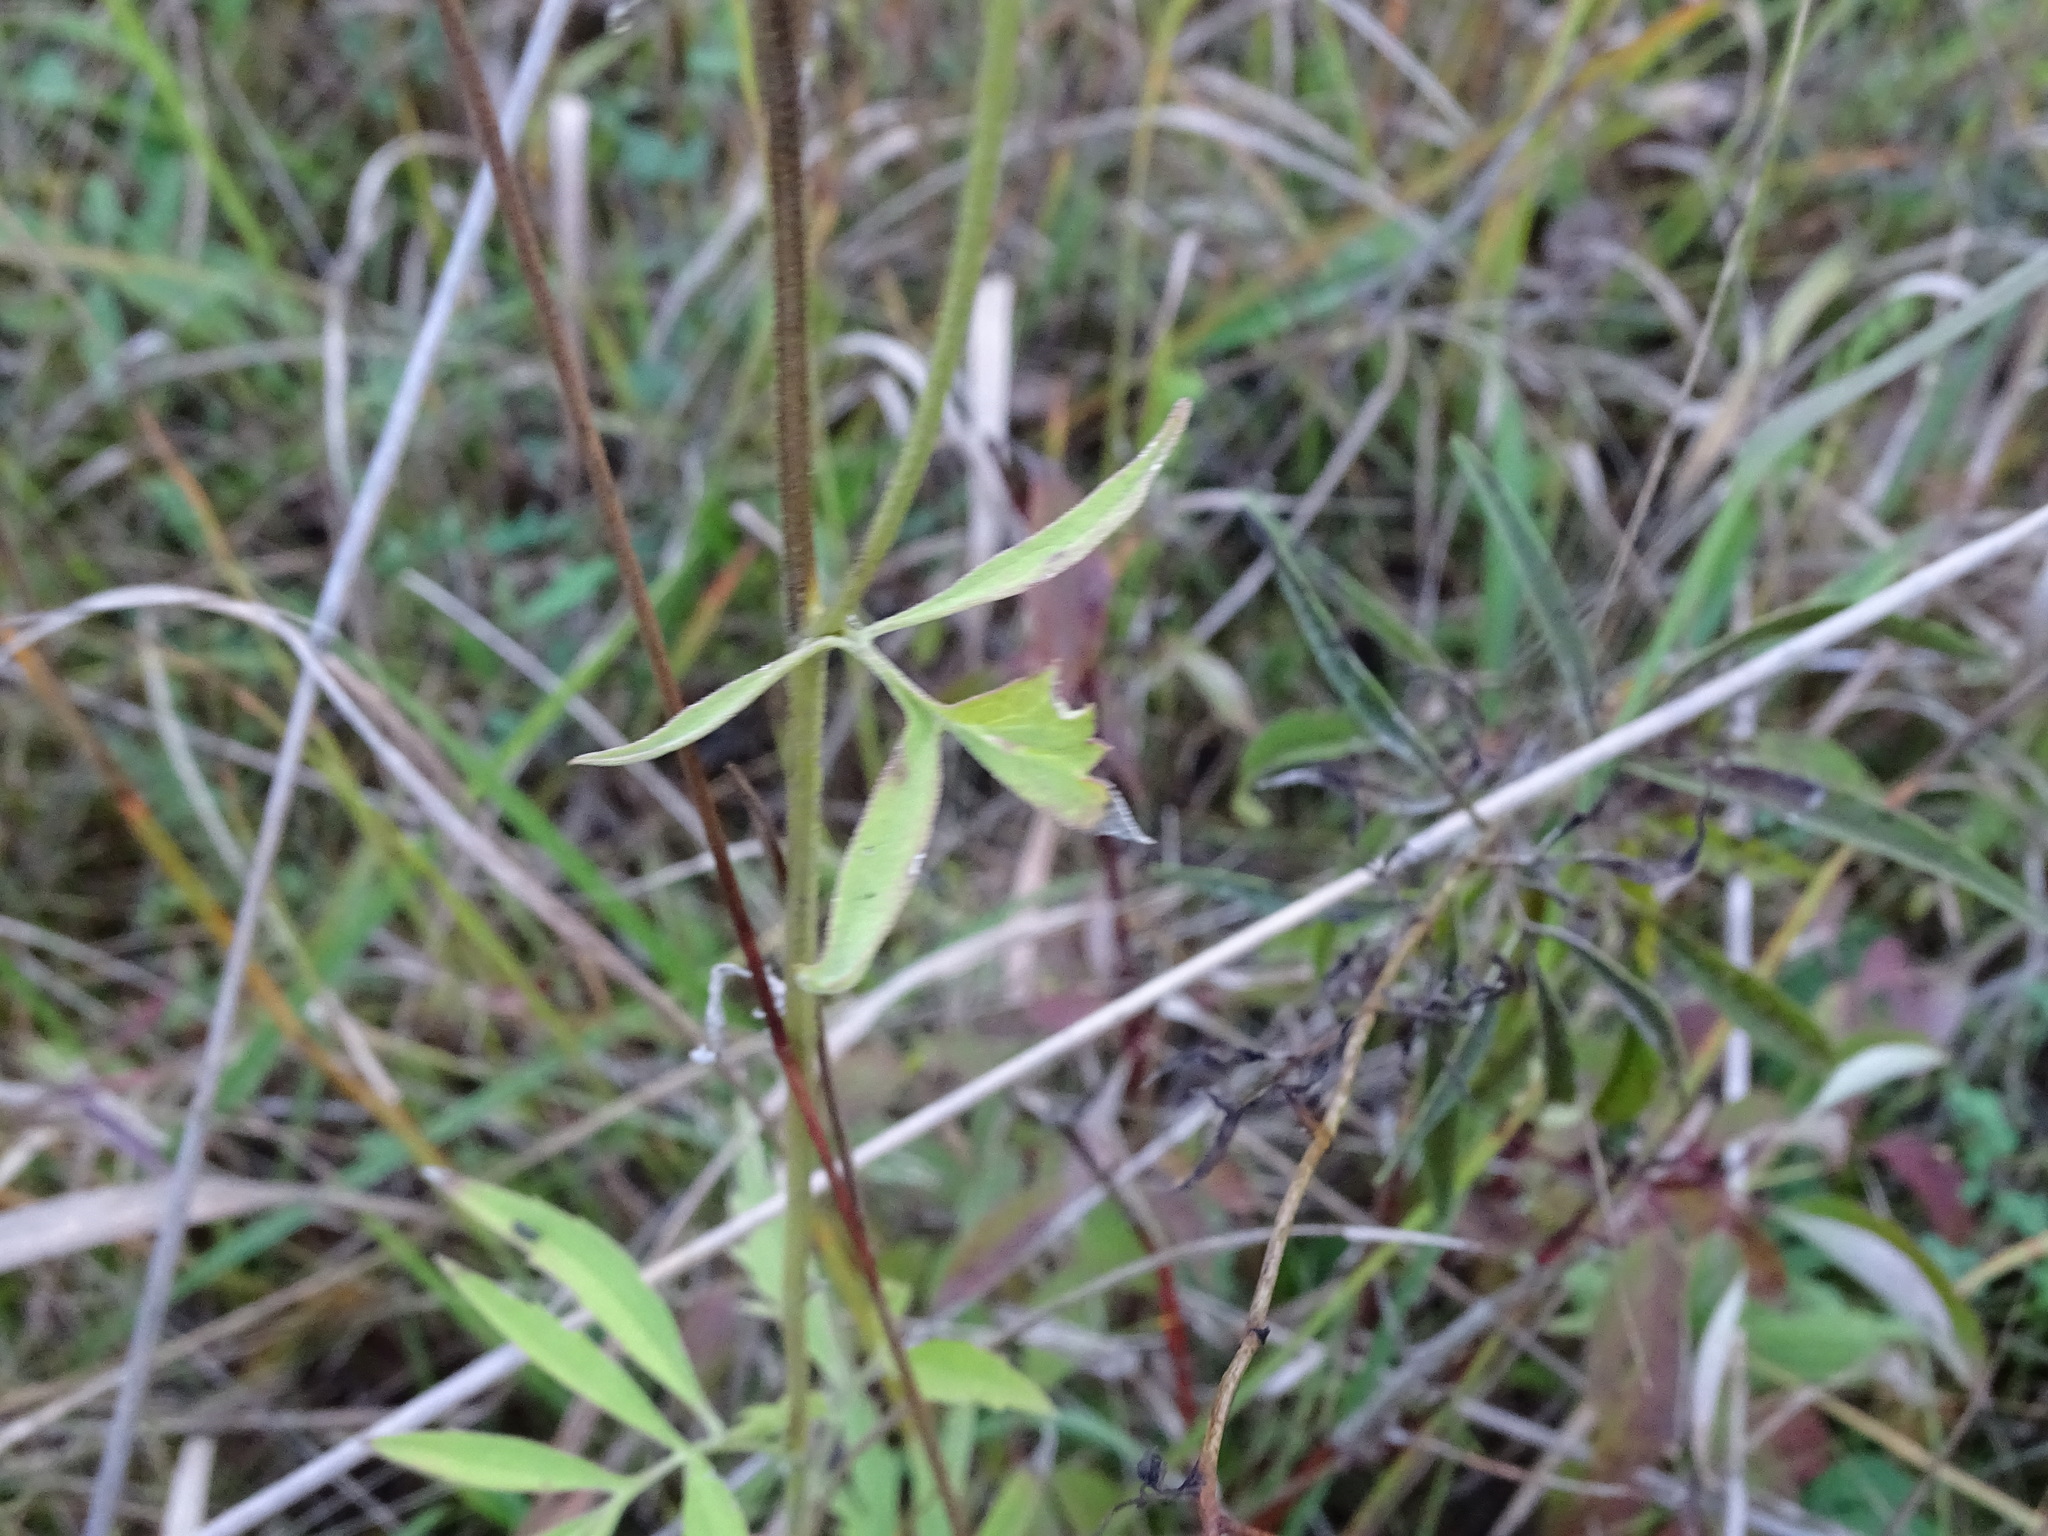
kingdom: Plantae
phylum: Tracheophyta
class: Magnoliopsida
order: Asterales
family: Asteraceae
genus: Ratibida
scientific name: Ratibida pinnata
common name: Drooping prairie-coneflower
